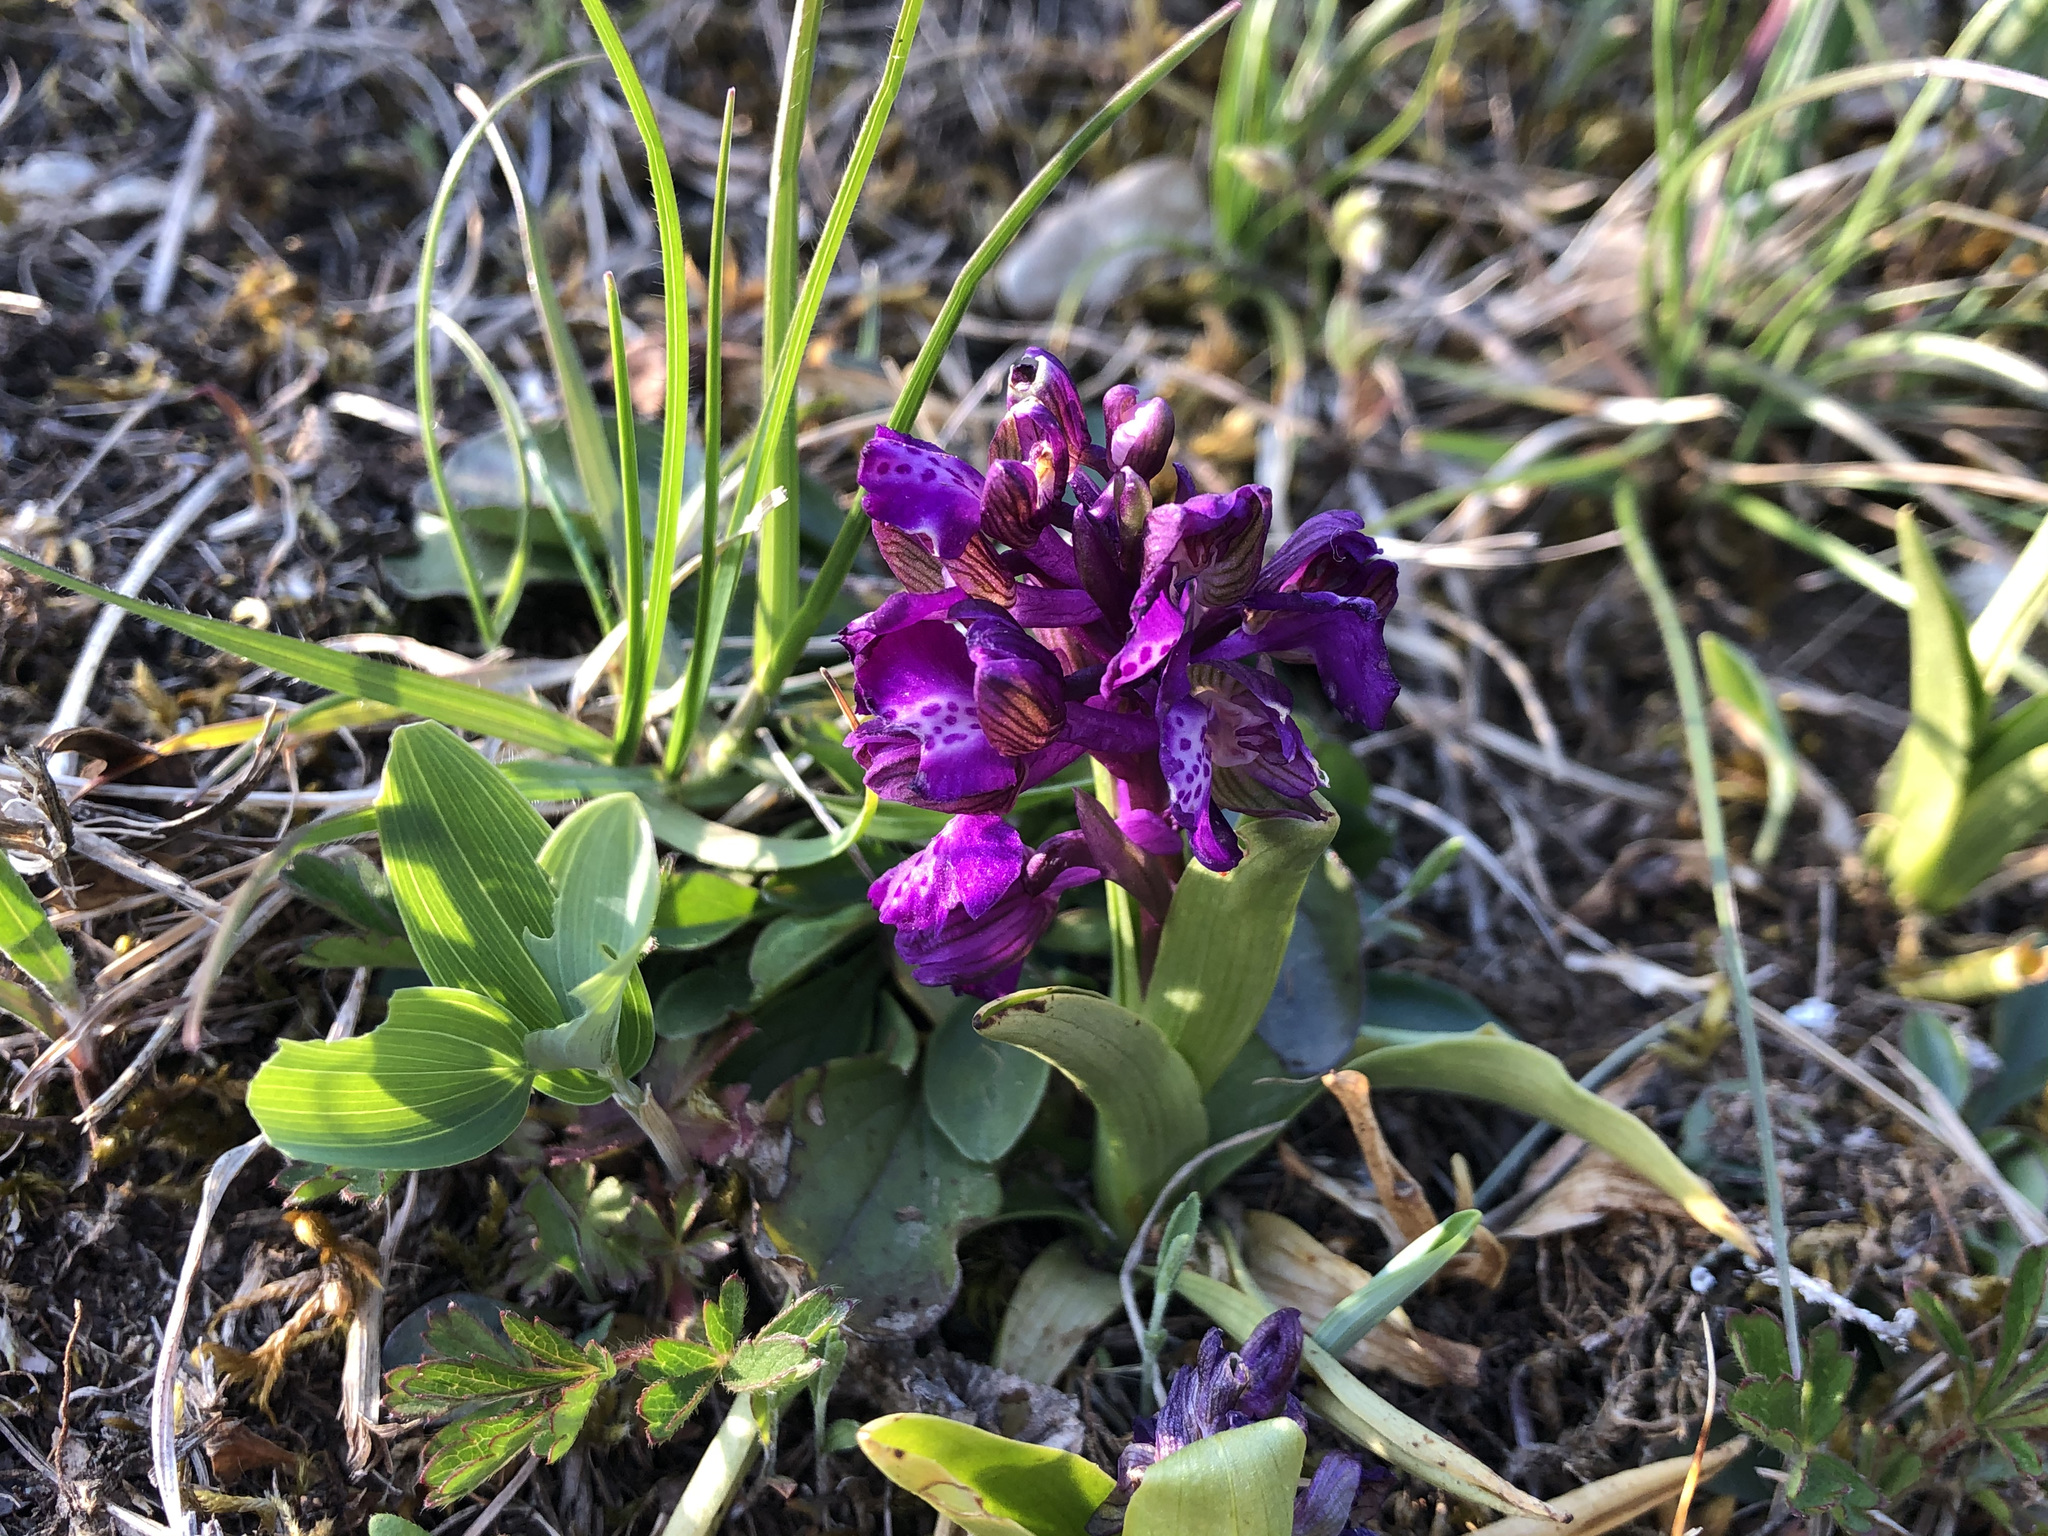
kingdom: Plantae
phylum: Tracheophyta
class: Liliopsida
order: Asparagales
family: Orchidaceae
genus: Anacamptis
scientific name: Anacamptis morio
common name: Green-winged orchid
